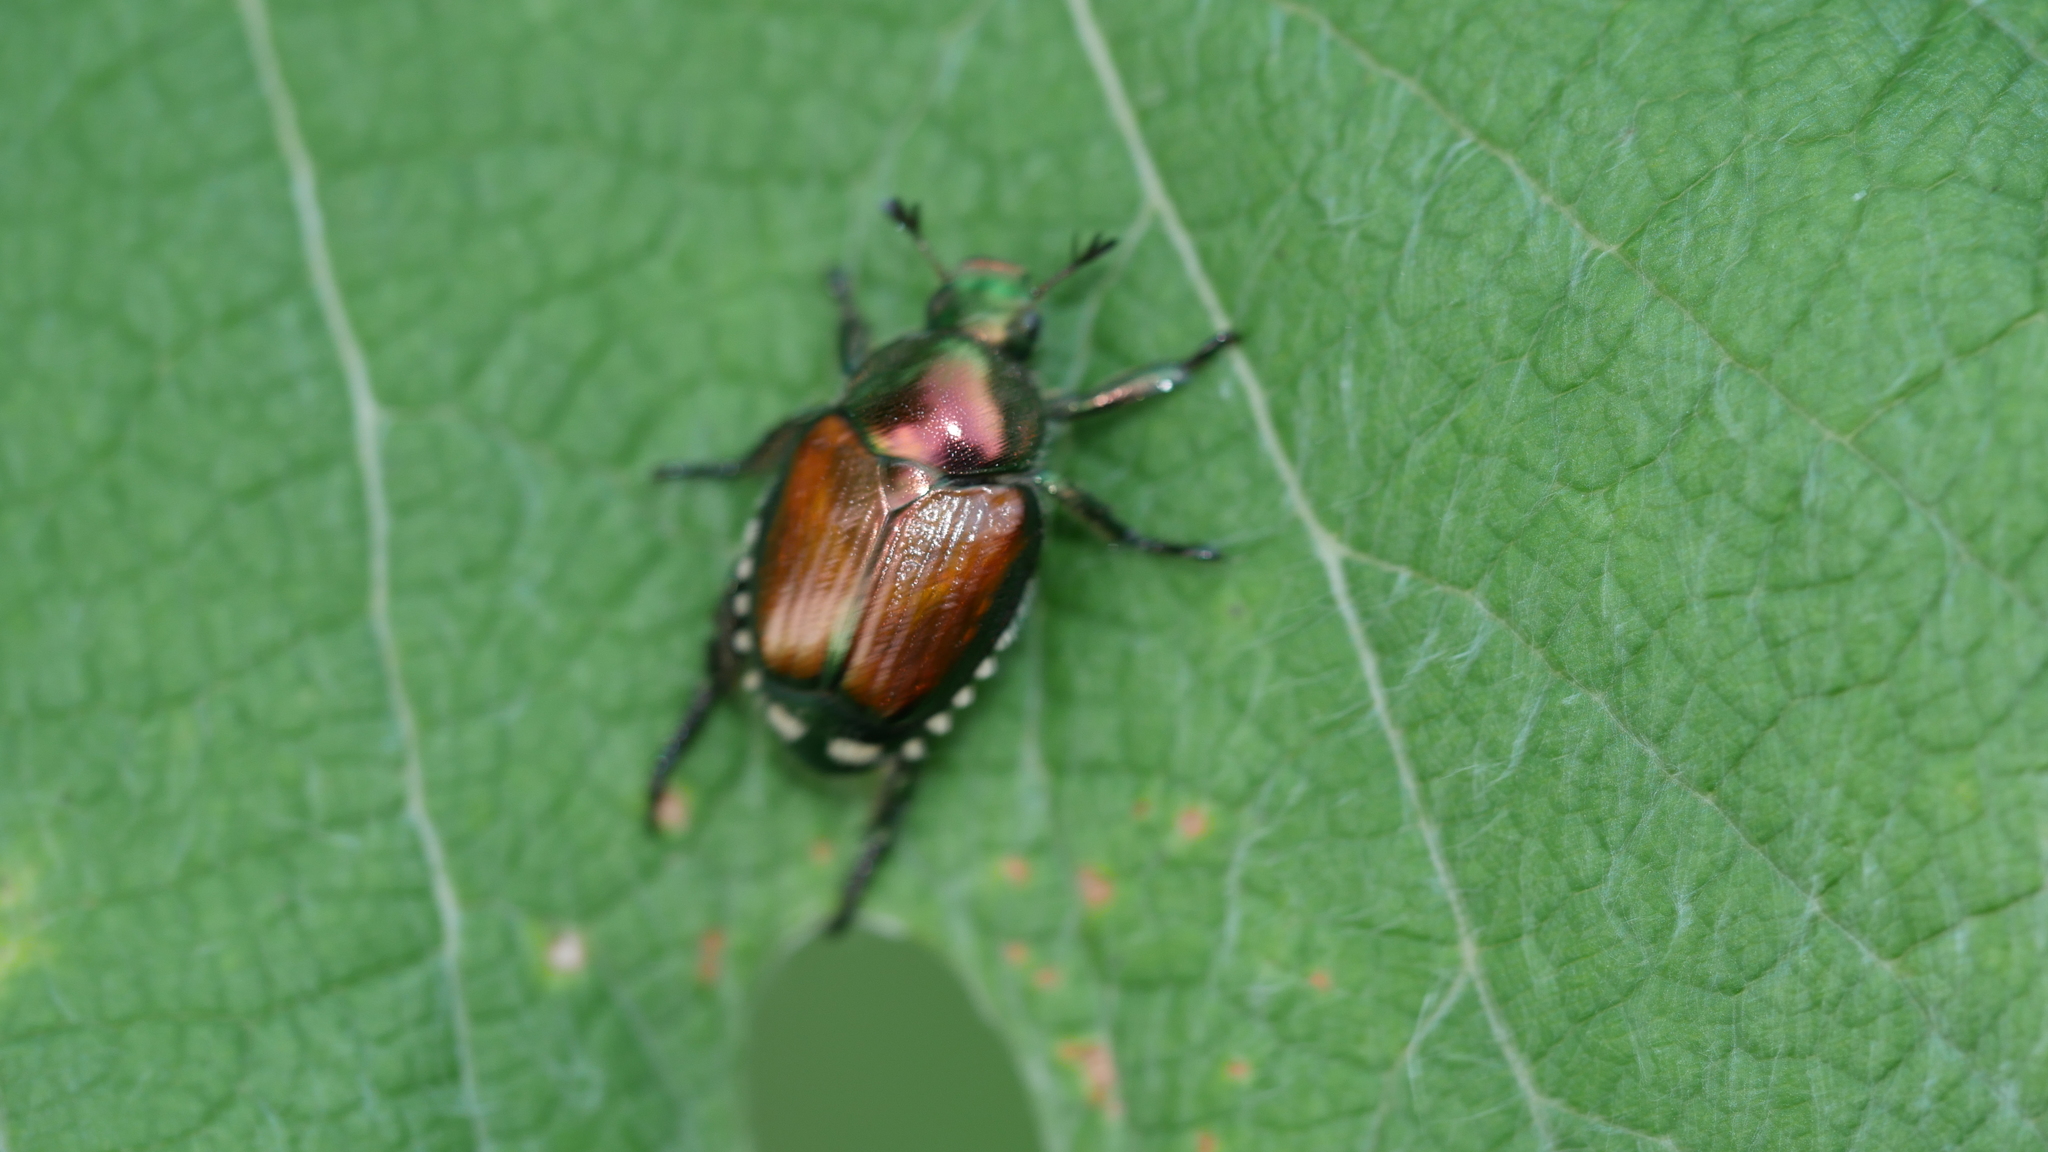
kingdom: Animalia
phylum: Arthropoda
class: Insecta
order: Coleoptera
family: Scarabaeidae
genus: Popillia
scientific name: Popillia japonica
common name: Japanese beetle
